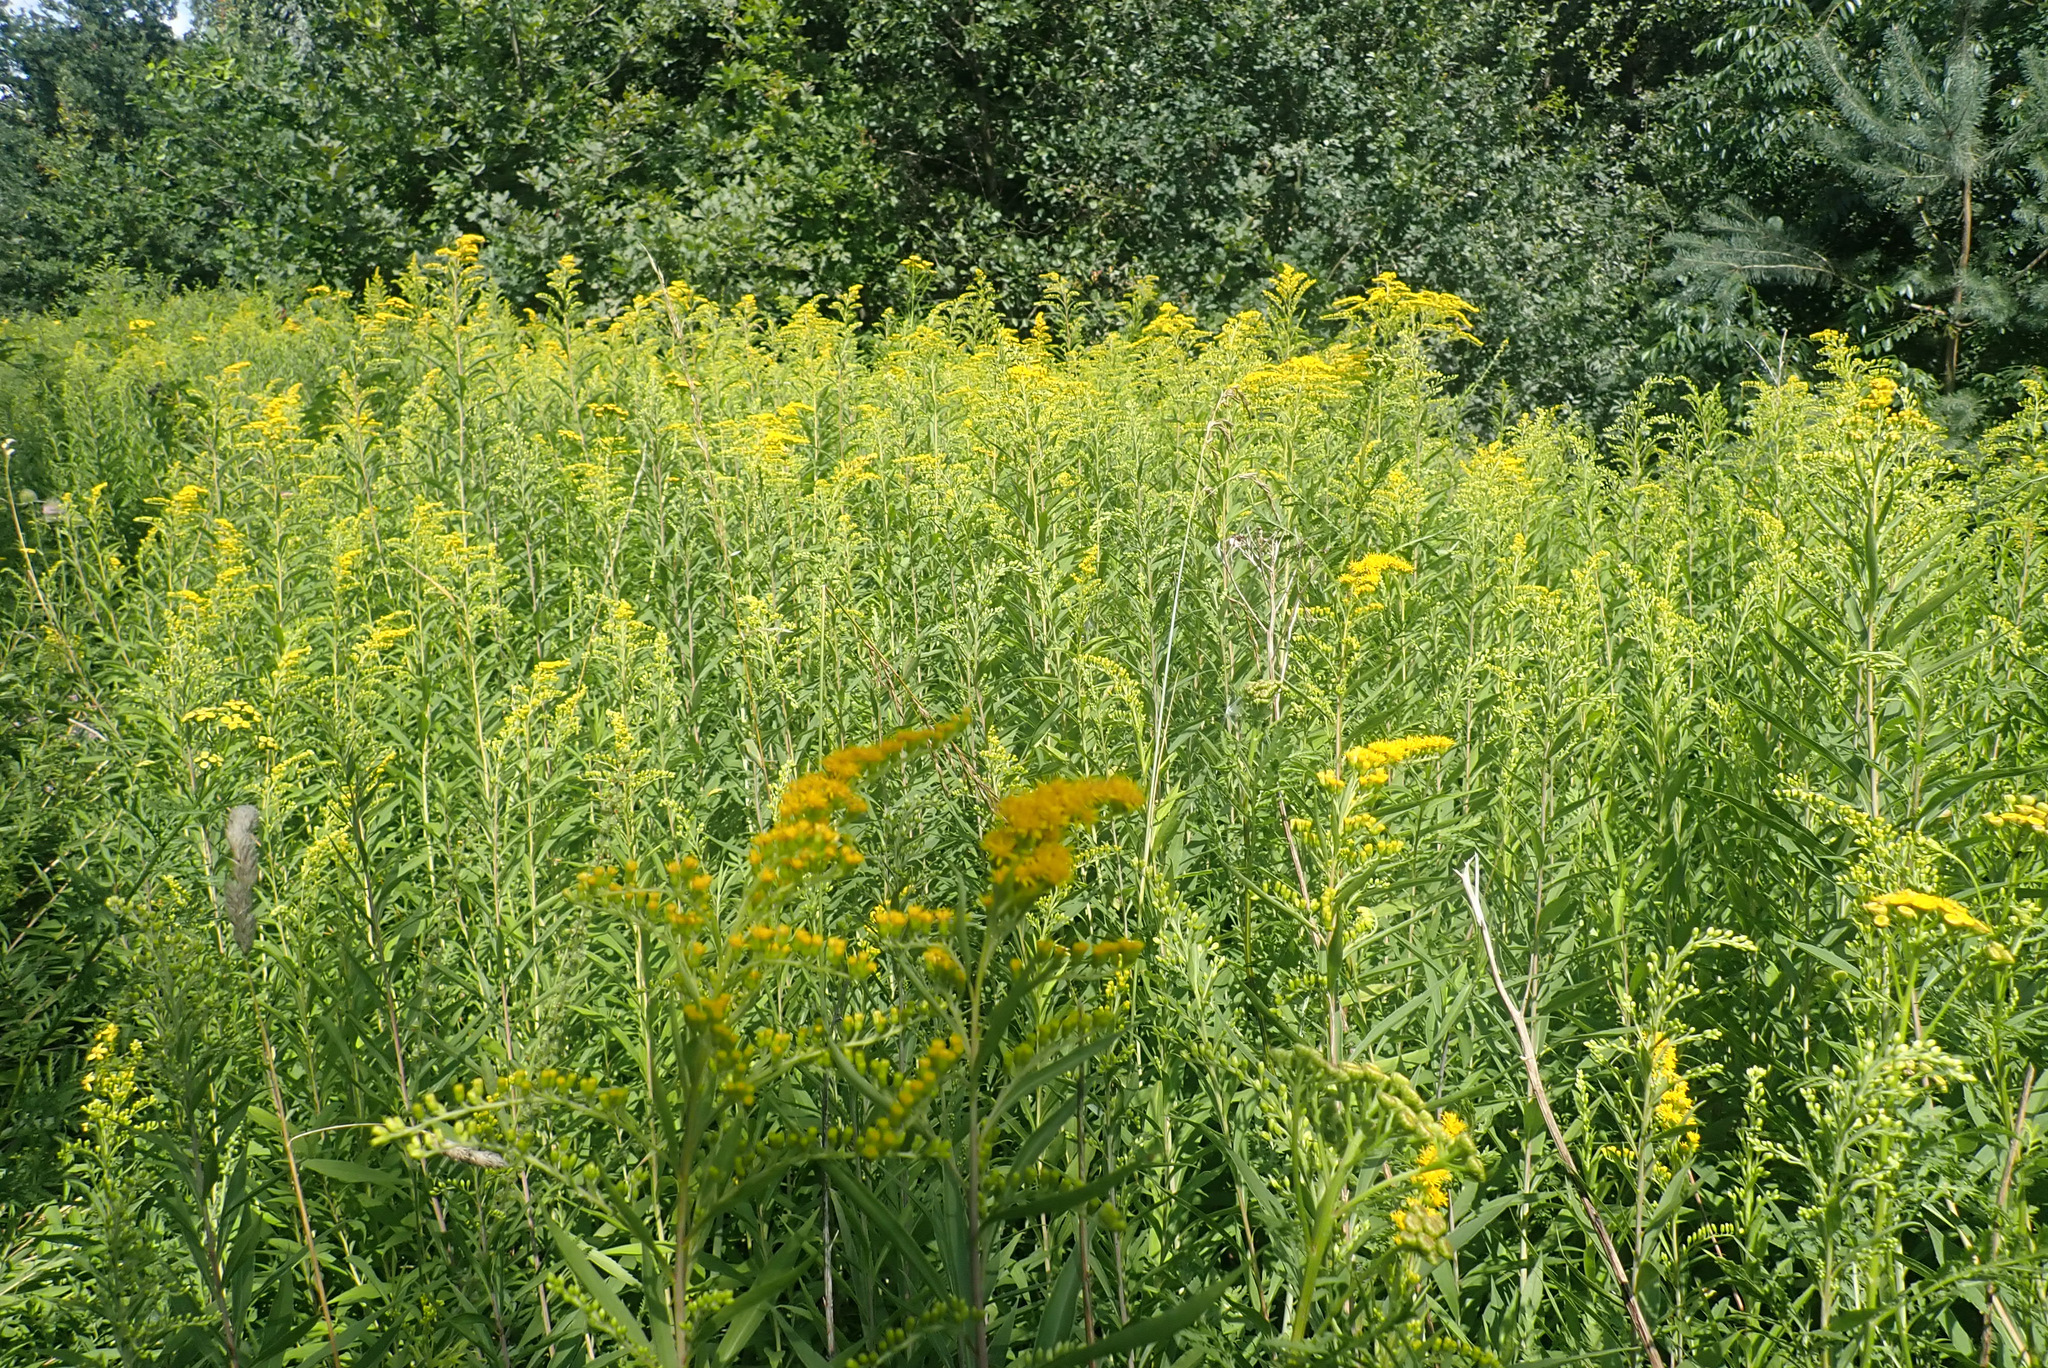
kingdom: Plantae
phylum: Tracheophyta
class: Magnoliopsida
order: Asterales
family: Asteraceae
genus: Solidago
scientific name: Solidago gigantea
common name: Giant goldenrod
